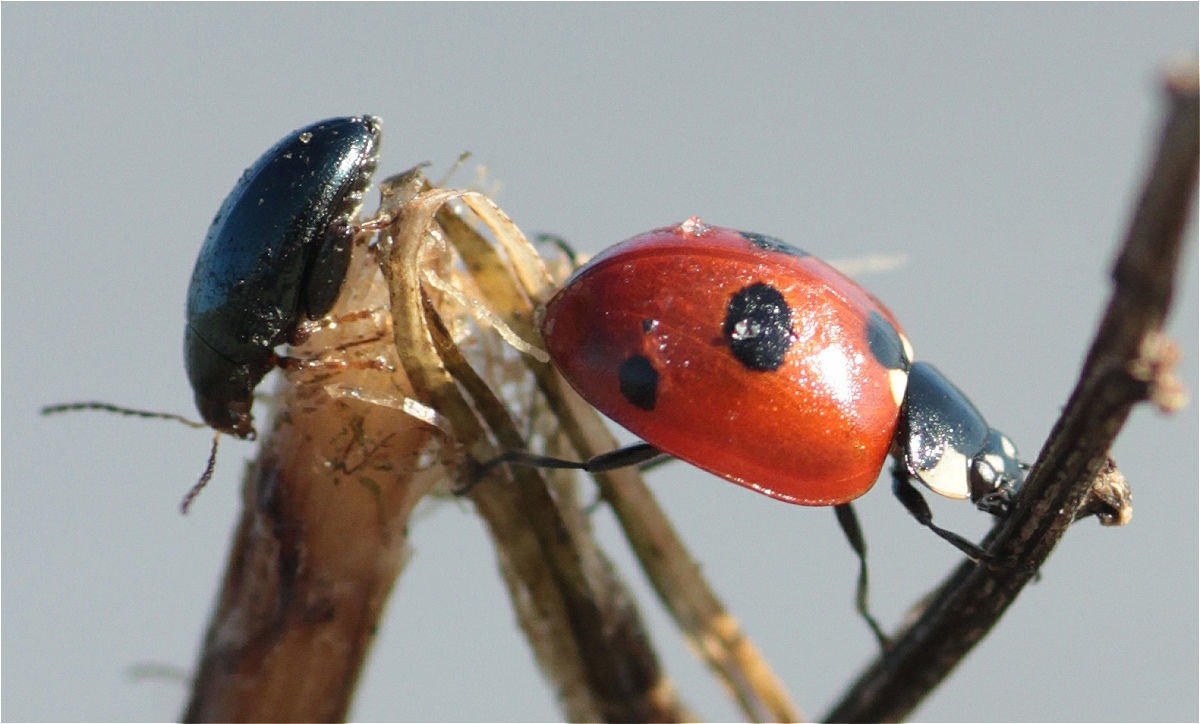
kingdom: Animalia
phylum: Arthropoda
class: Insecta
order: Coleoptera
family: Coccinellidae
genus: Coccinella
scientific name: Coccinella quinquepunctata
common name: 5-spot ladybird
